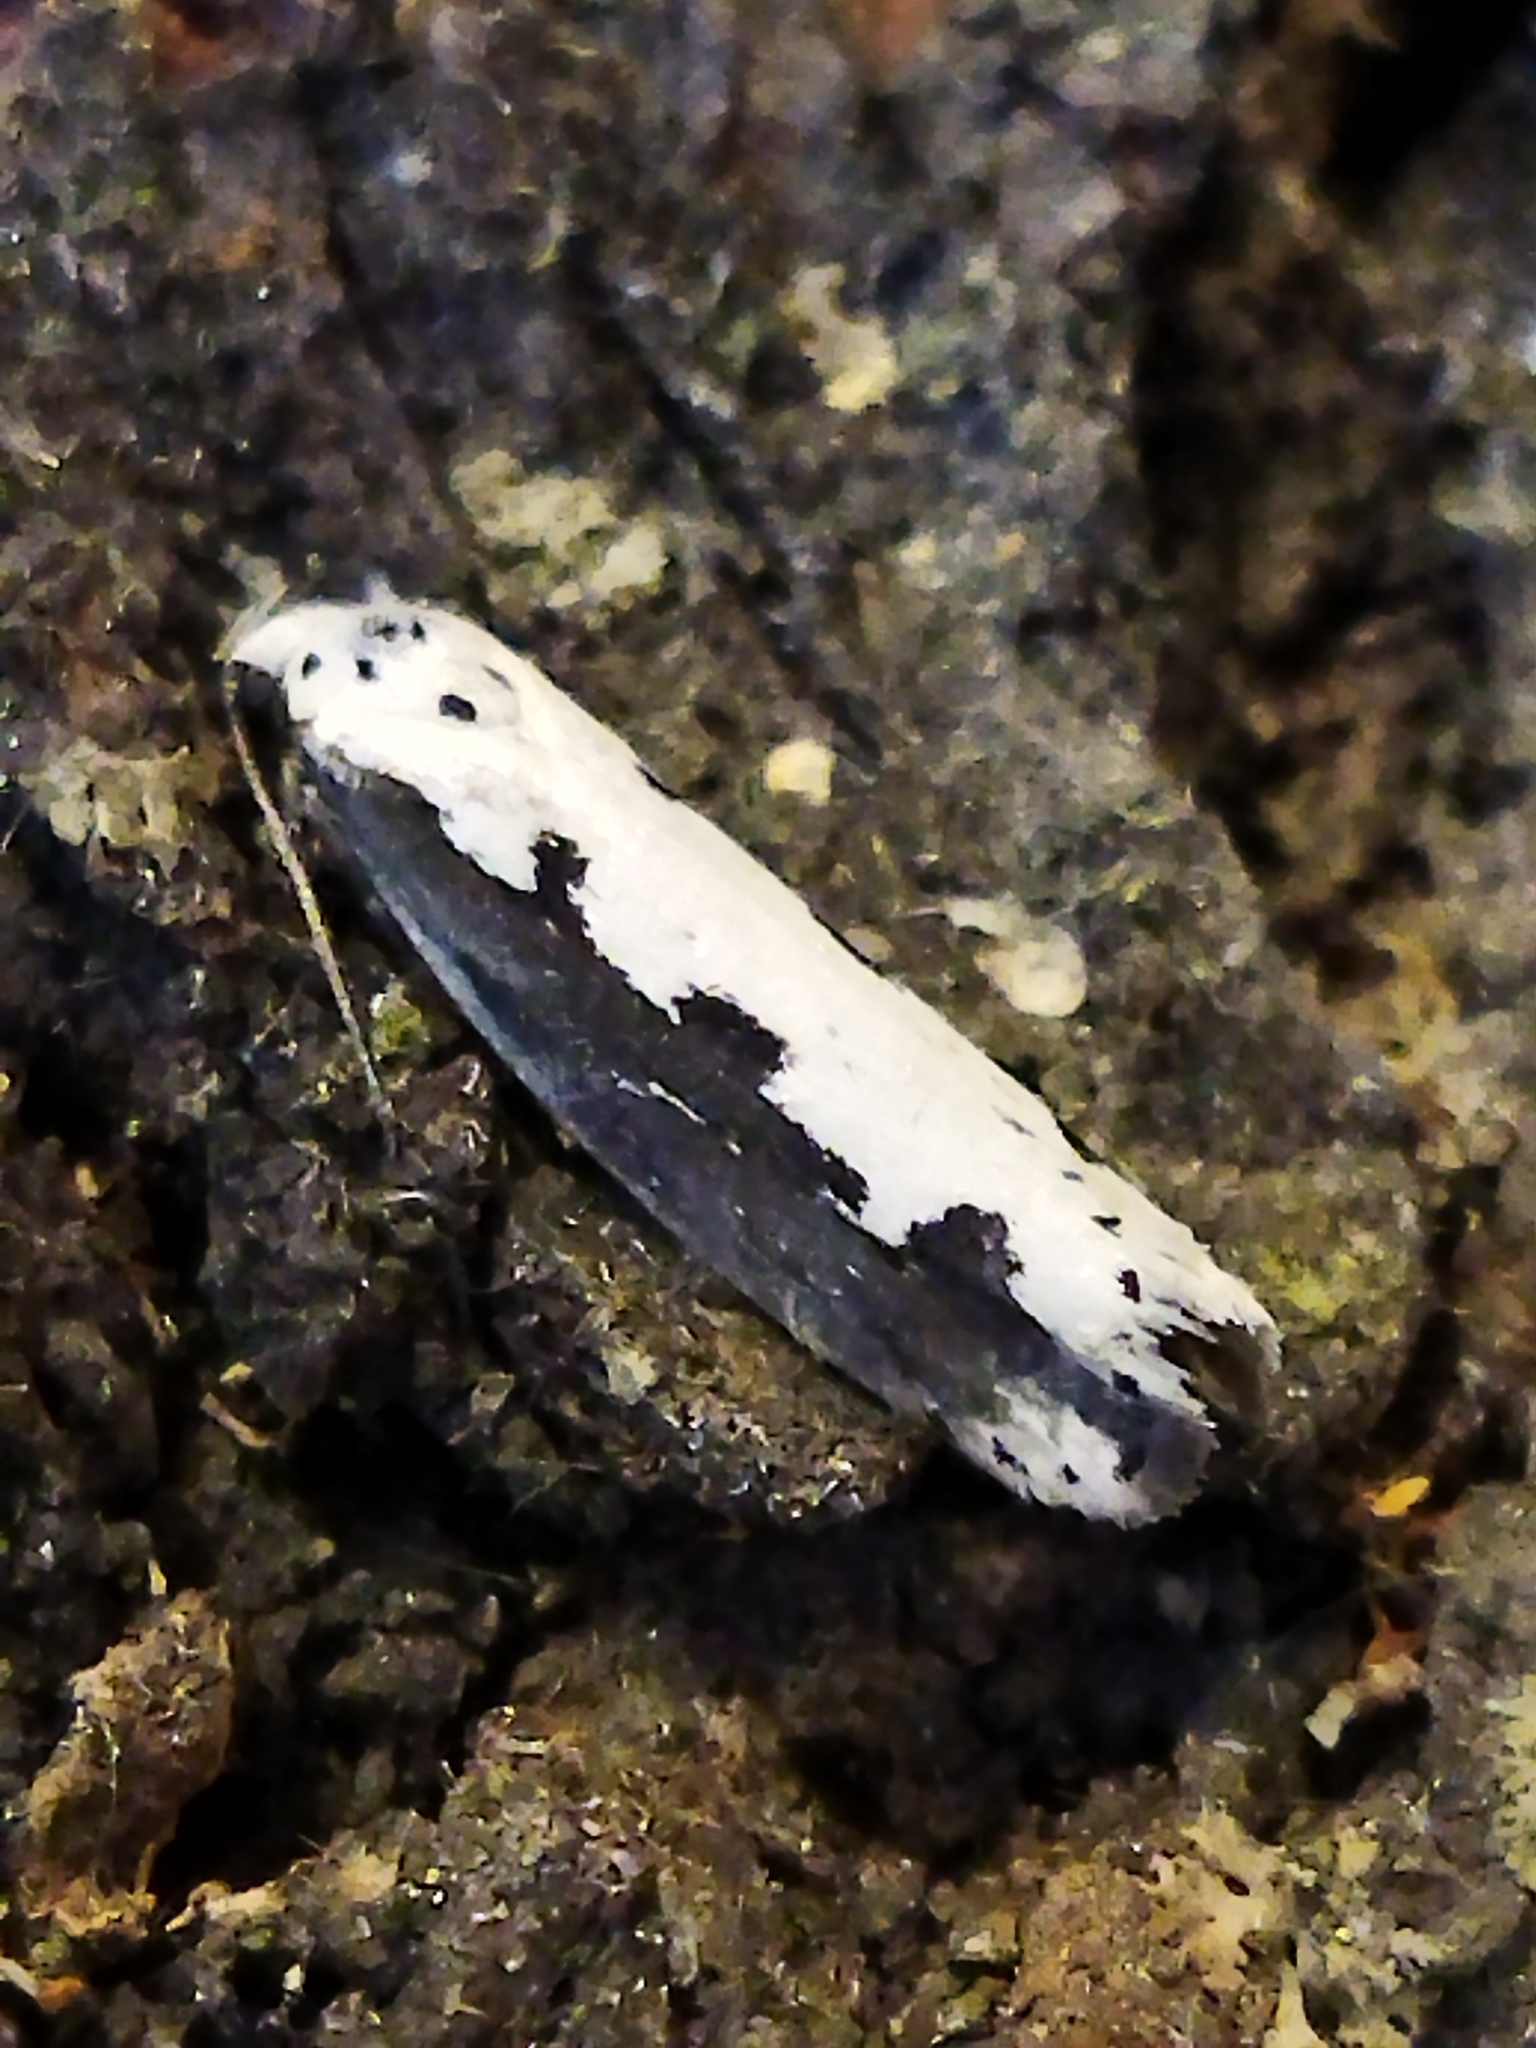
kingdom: Animalia
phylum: Arthropoda
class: Insecta
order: Lepidoptera
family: Ethmiidae
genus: Ethmia
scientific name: Ethmia bipunctella
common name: Bordered ermel
